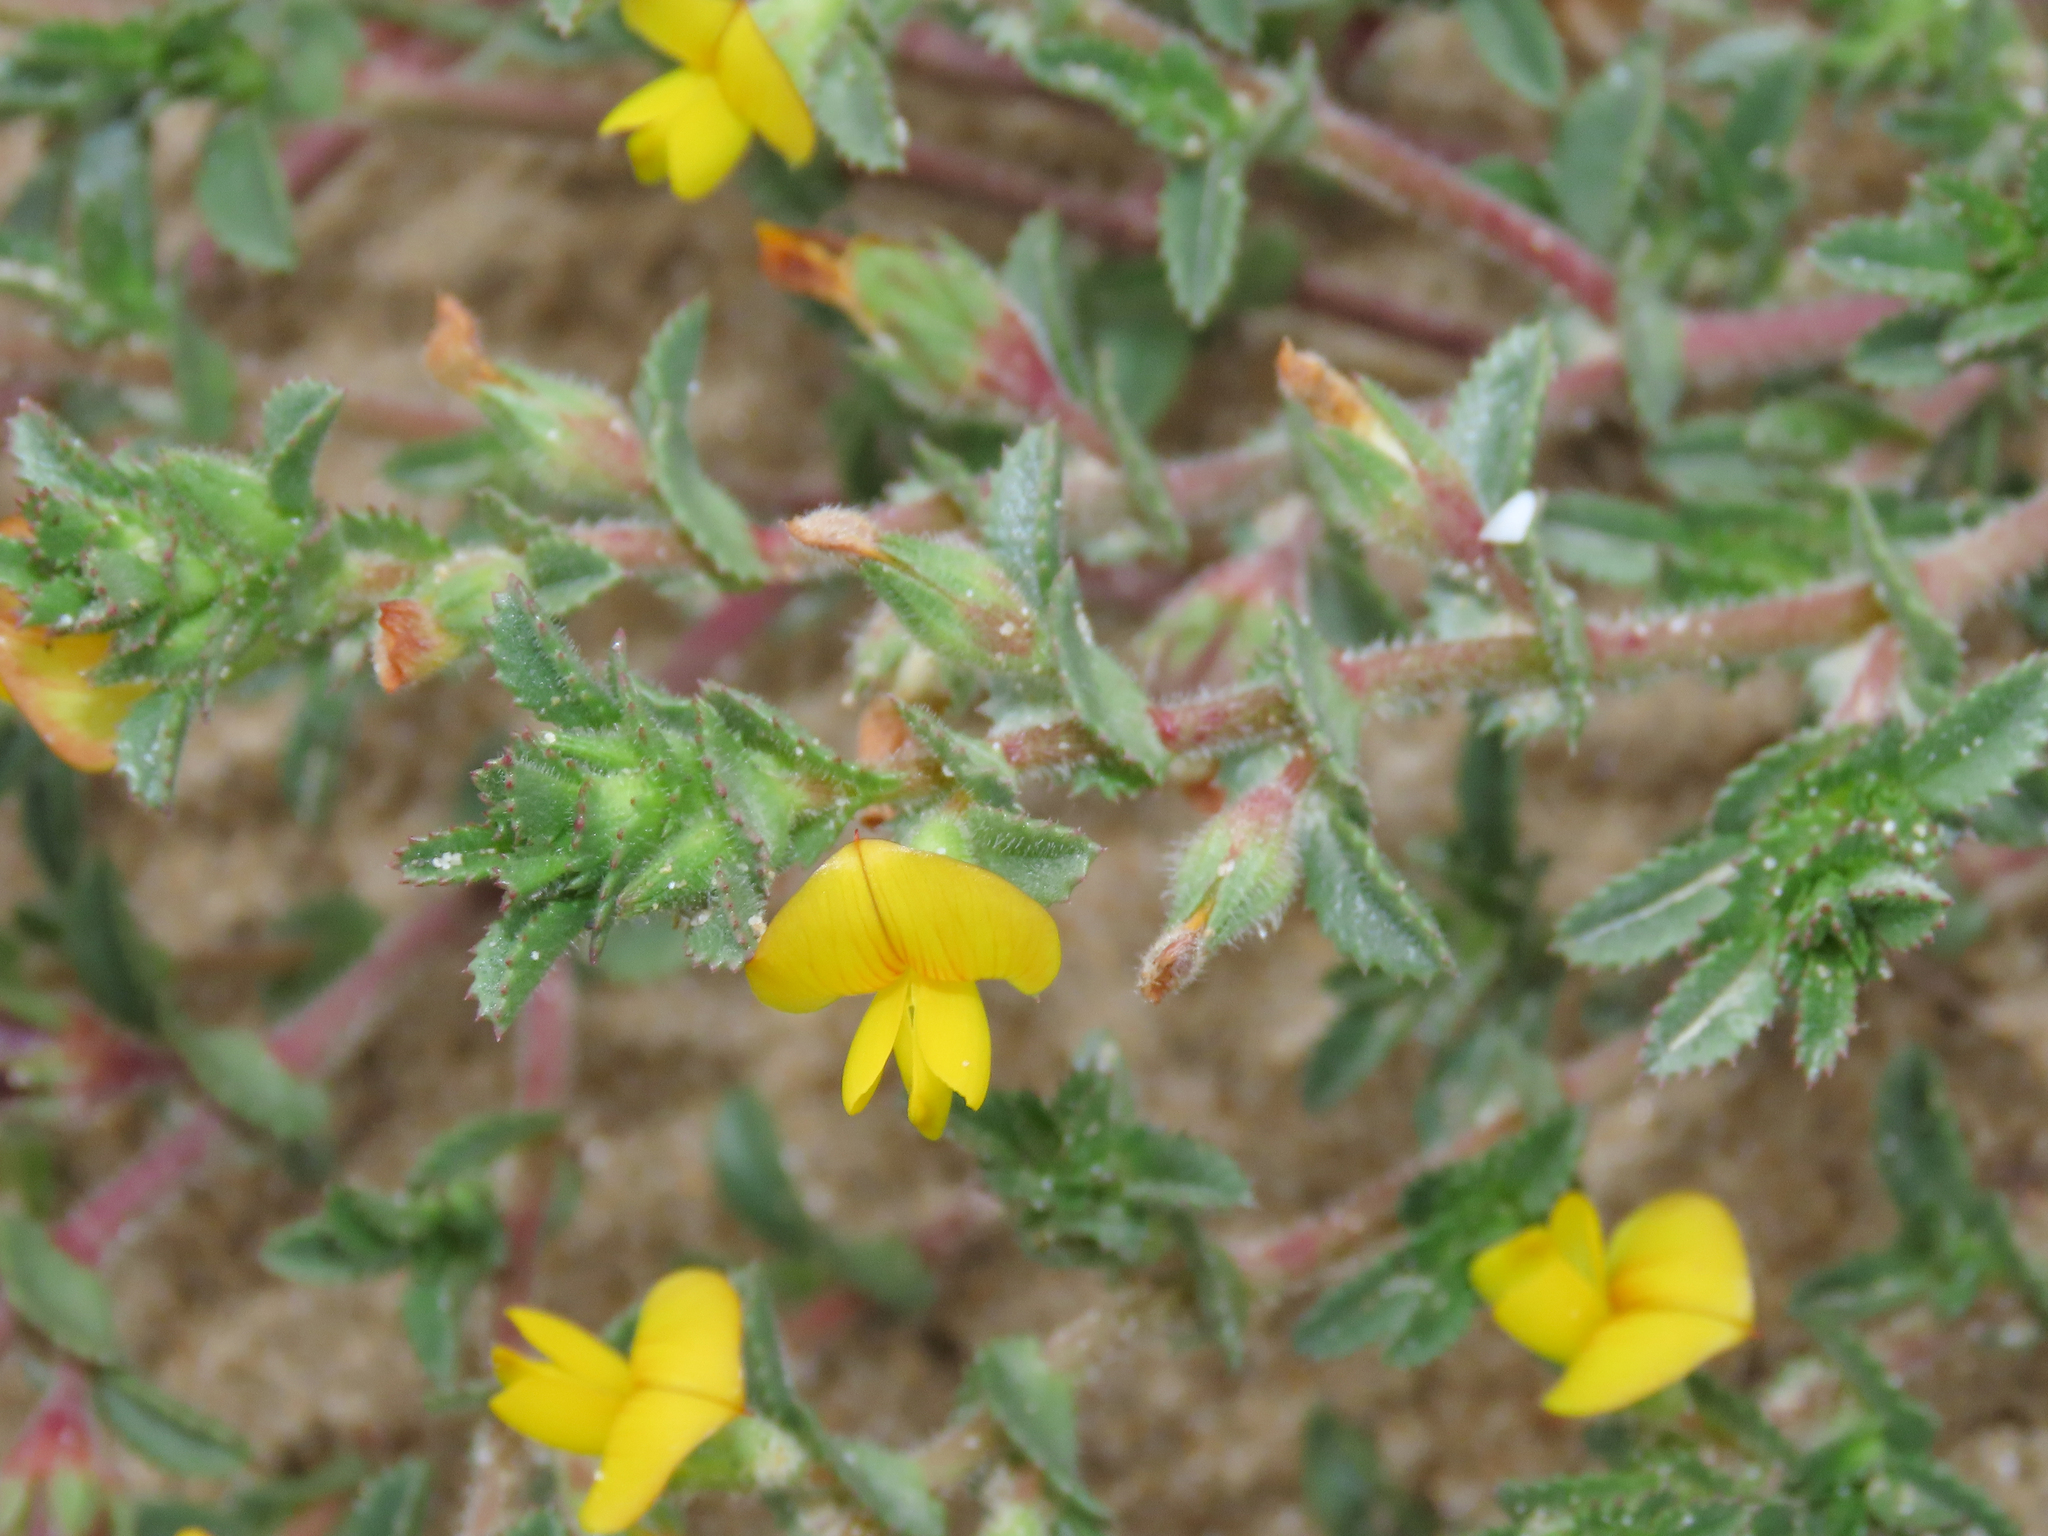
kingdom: Plantae
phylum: Tracheophyta
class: Magnoliopsida
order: Fabales
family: Fabaceae
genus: Ononis
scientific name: Ononis variegata
